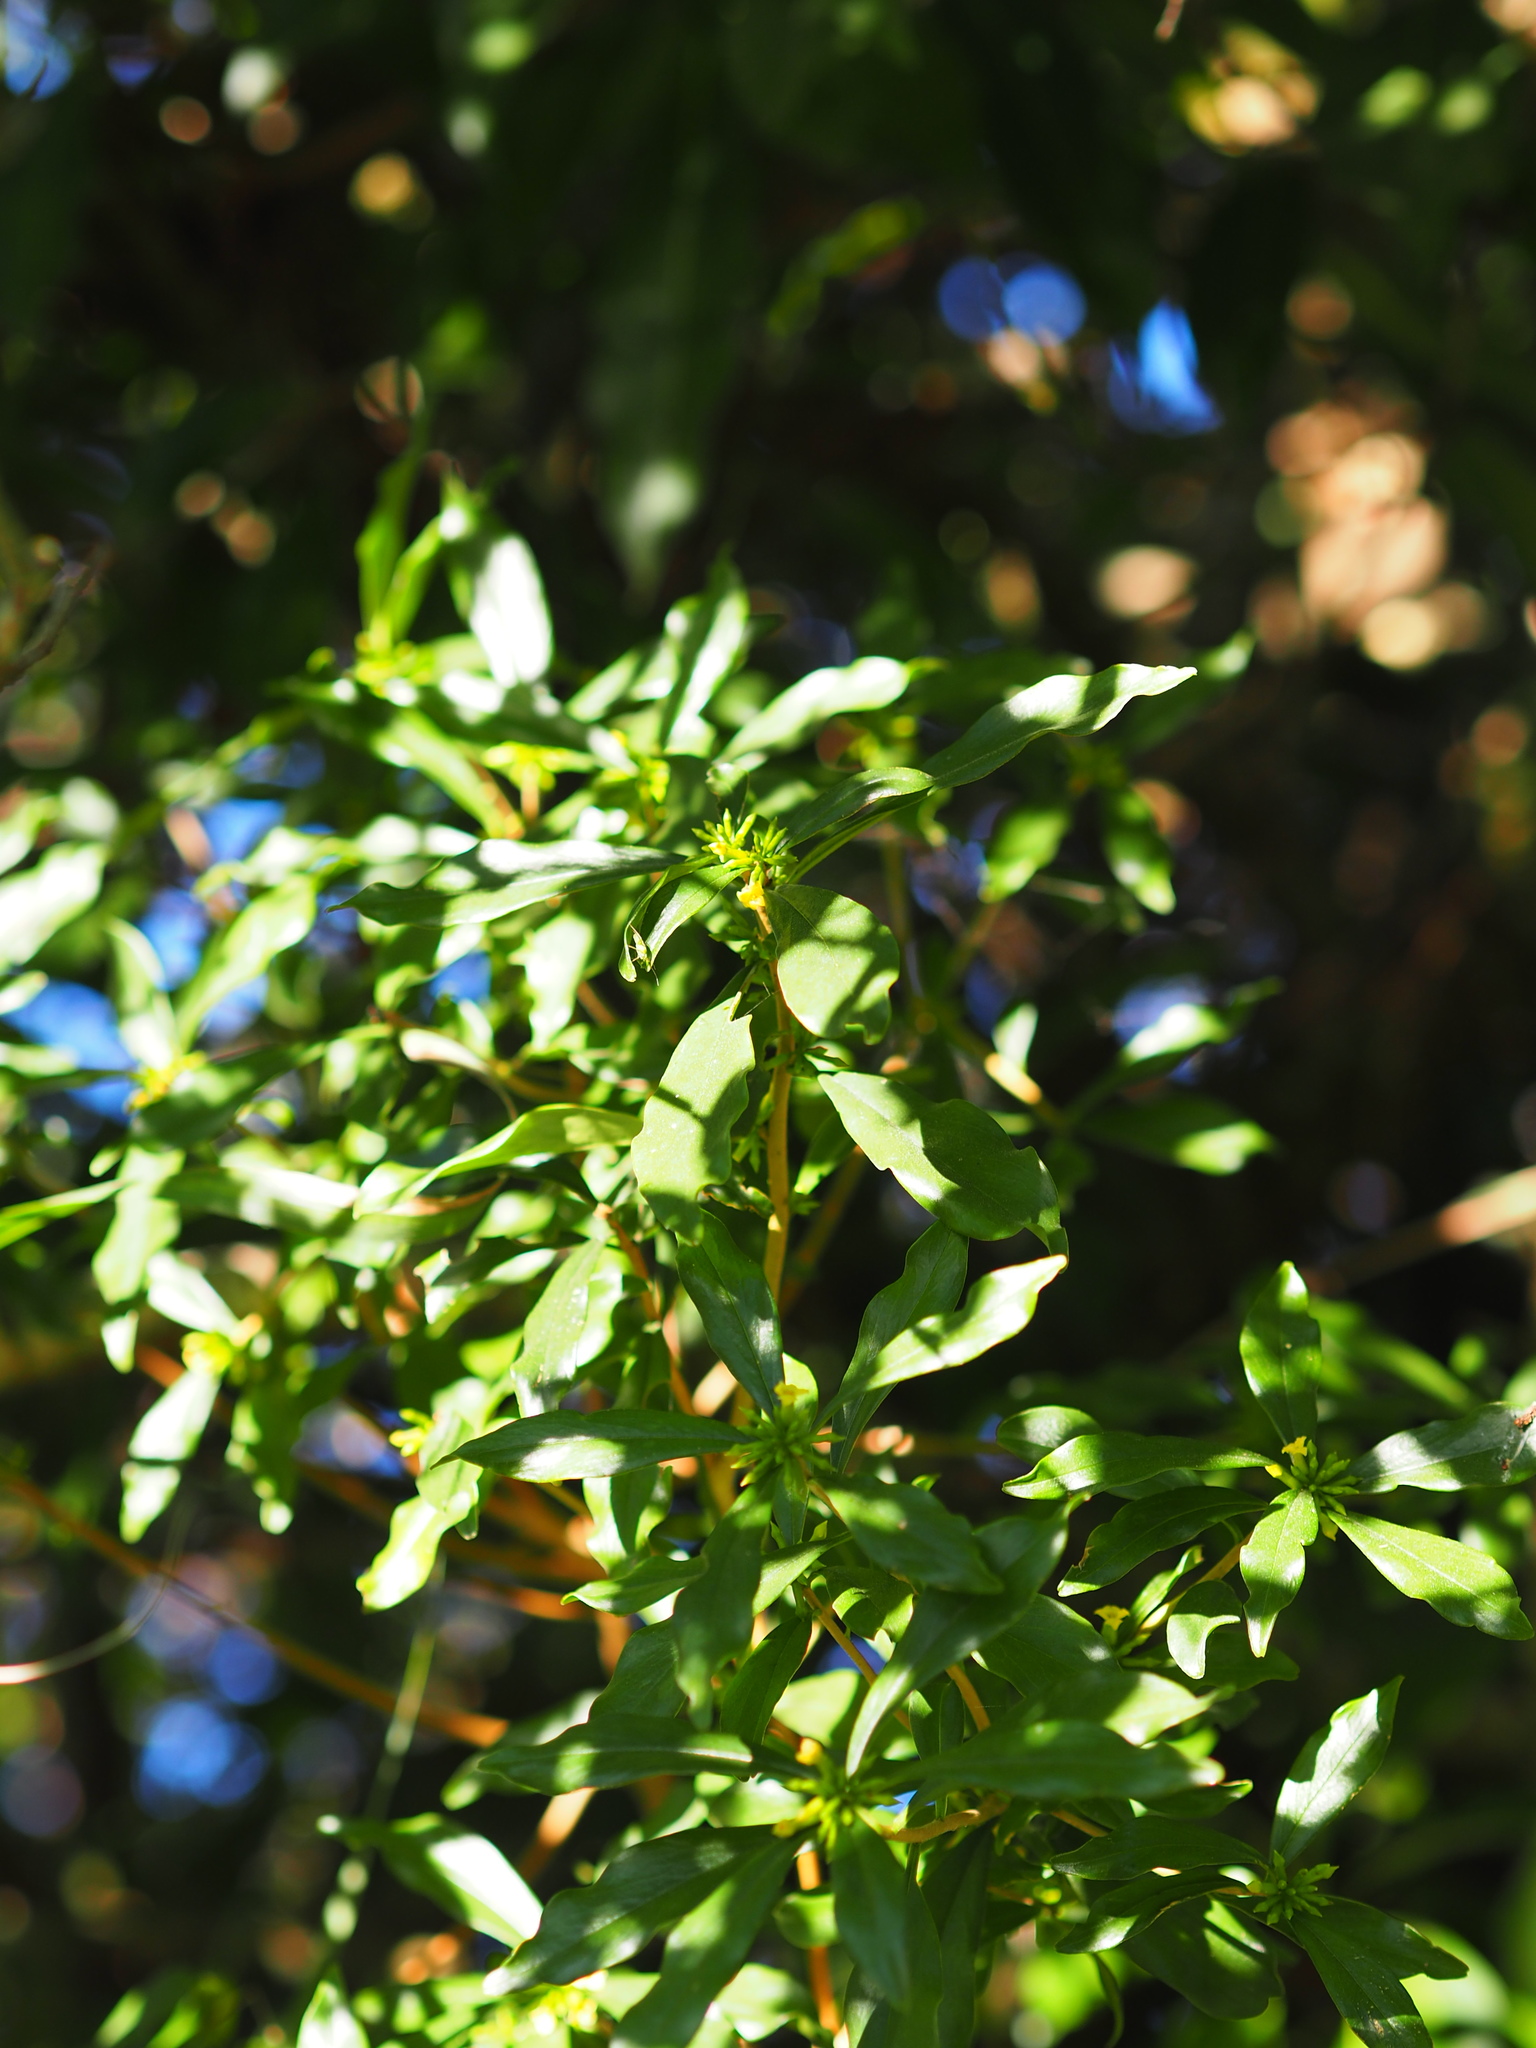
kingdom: Plantae
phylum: Tracheophyta
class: Magnoliopsida
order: Malvales
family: Thymelaeaceae
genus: Daphne
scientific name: Daphne arisanensis
